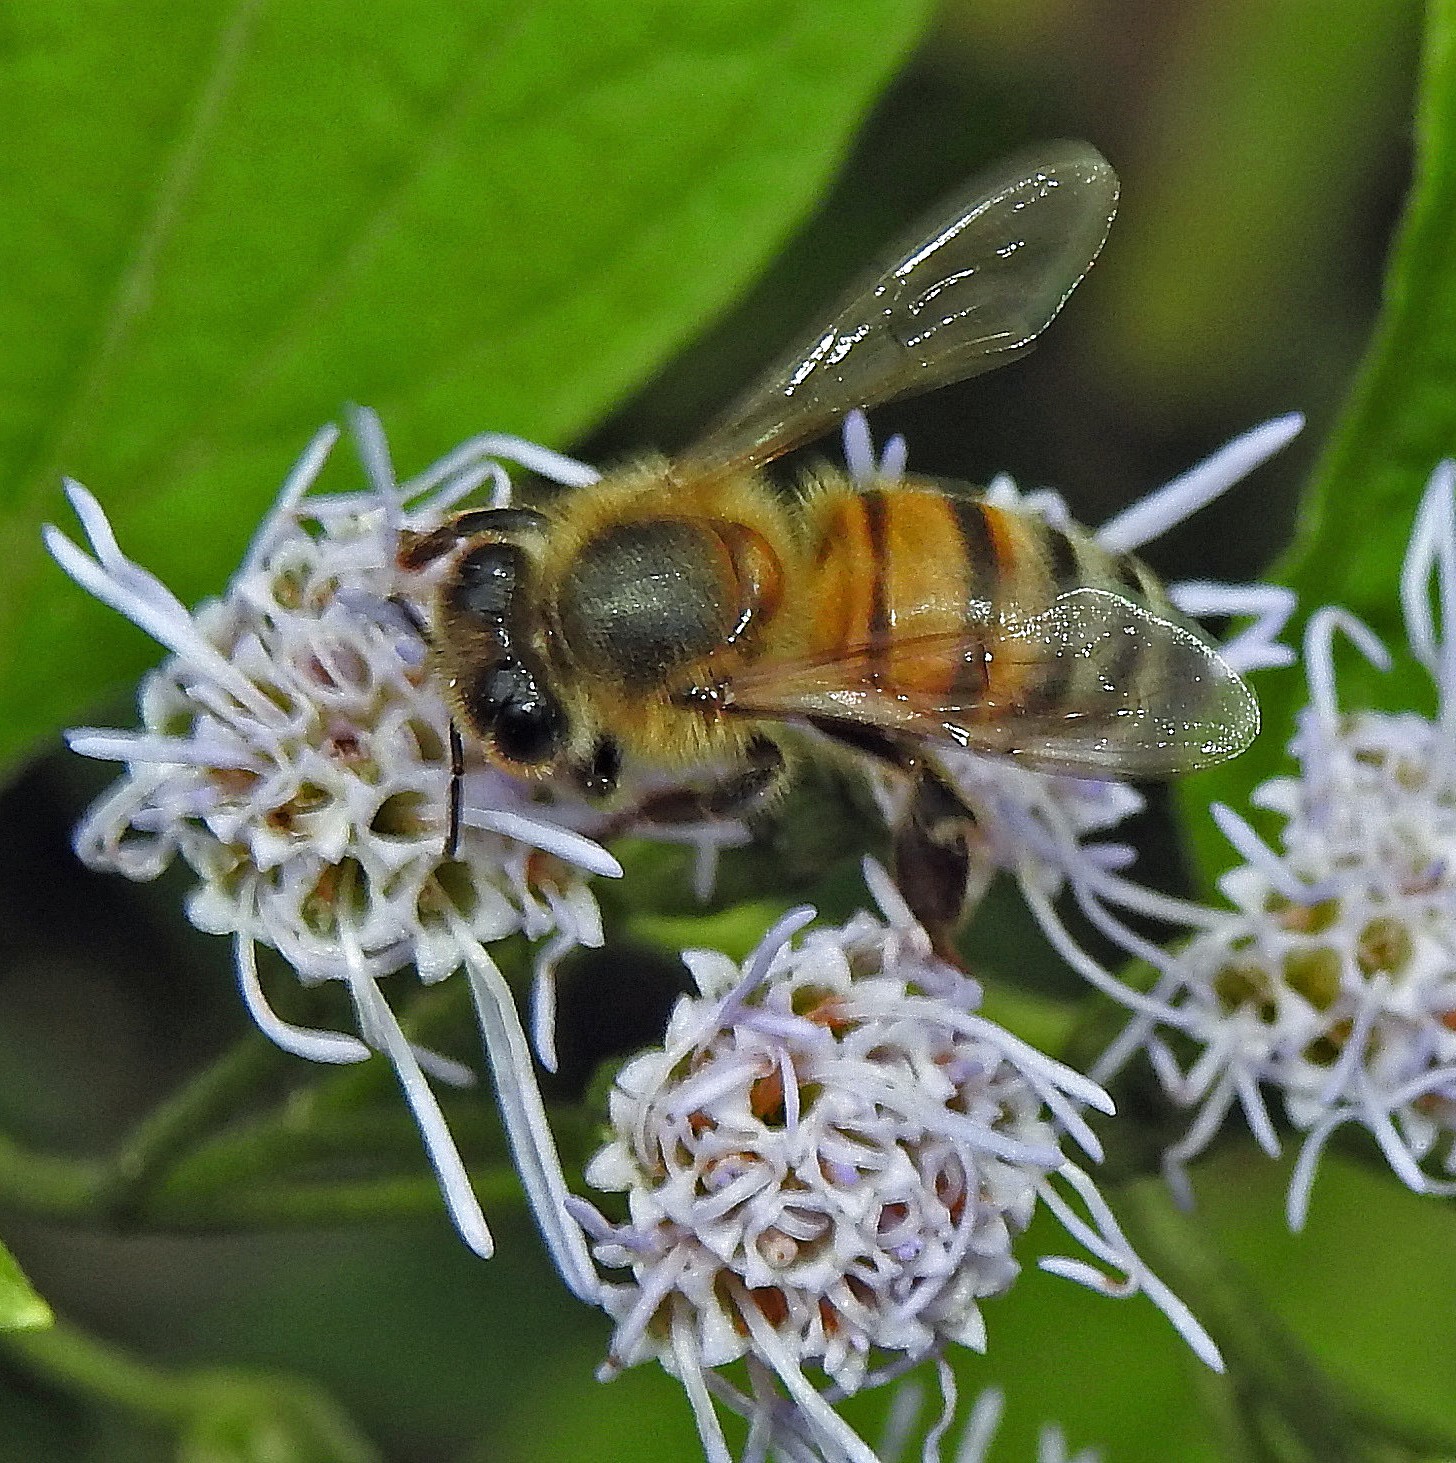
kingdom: Animalia
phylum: Arthropoda
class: Insecta
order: Hymenoptera
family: Apidae
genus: Apis
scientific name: Apis mellifera
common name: Honey bee
